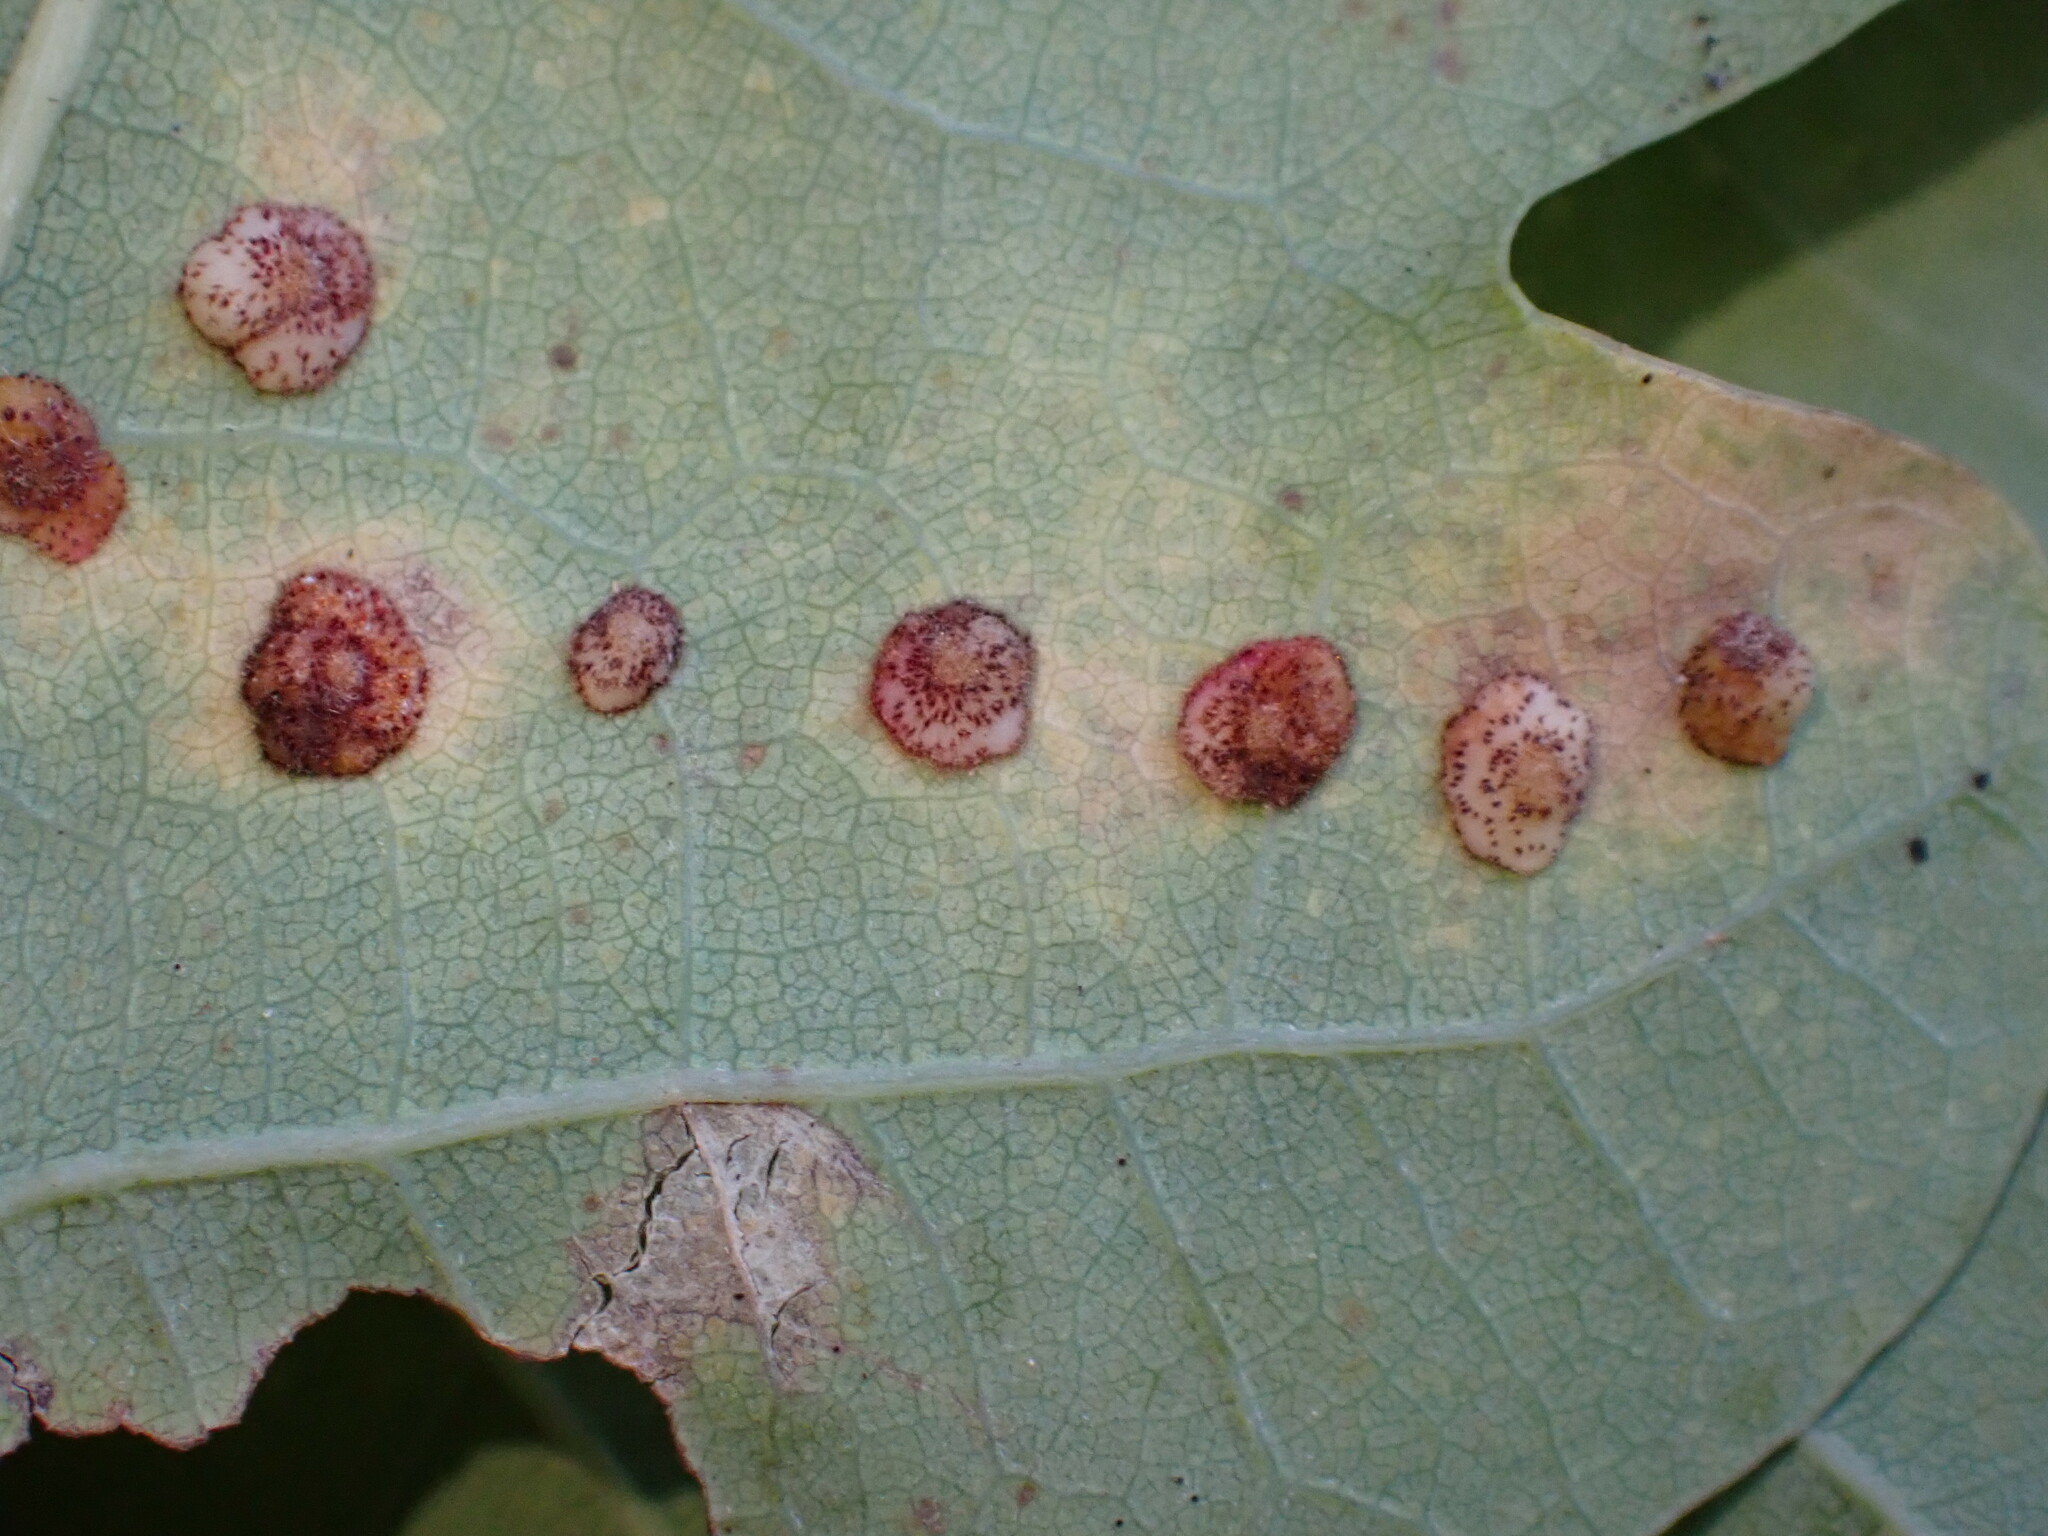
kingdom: Animalia
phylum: Arthropoda
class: Insecta
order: Hymenoptera
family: Cynipidae
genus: Neuroterus
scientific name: Neuroterus quercusbaccarum
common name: Common spangle gall
